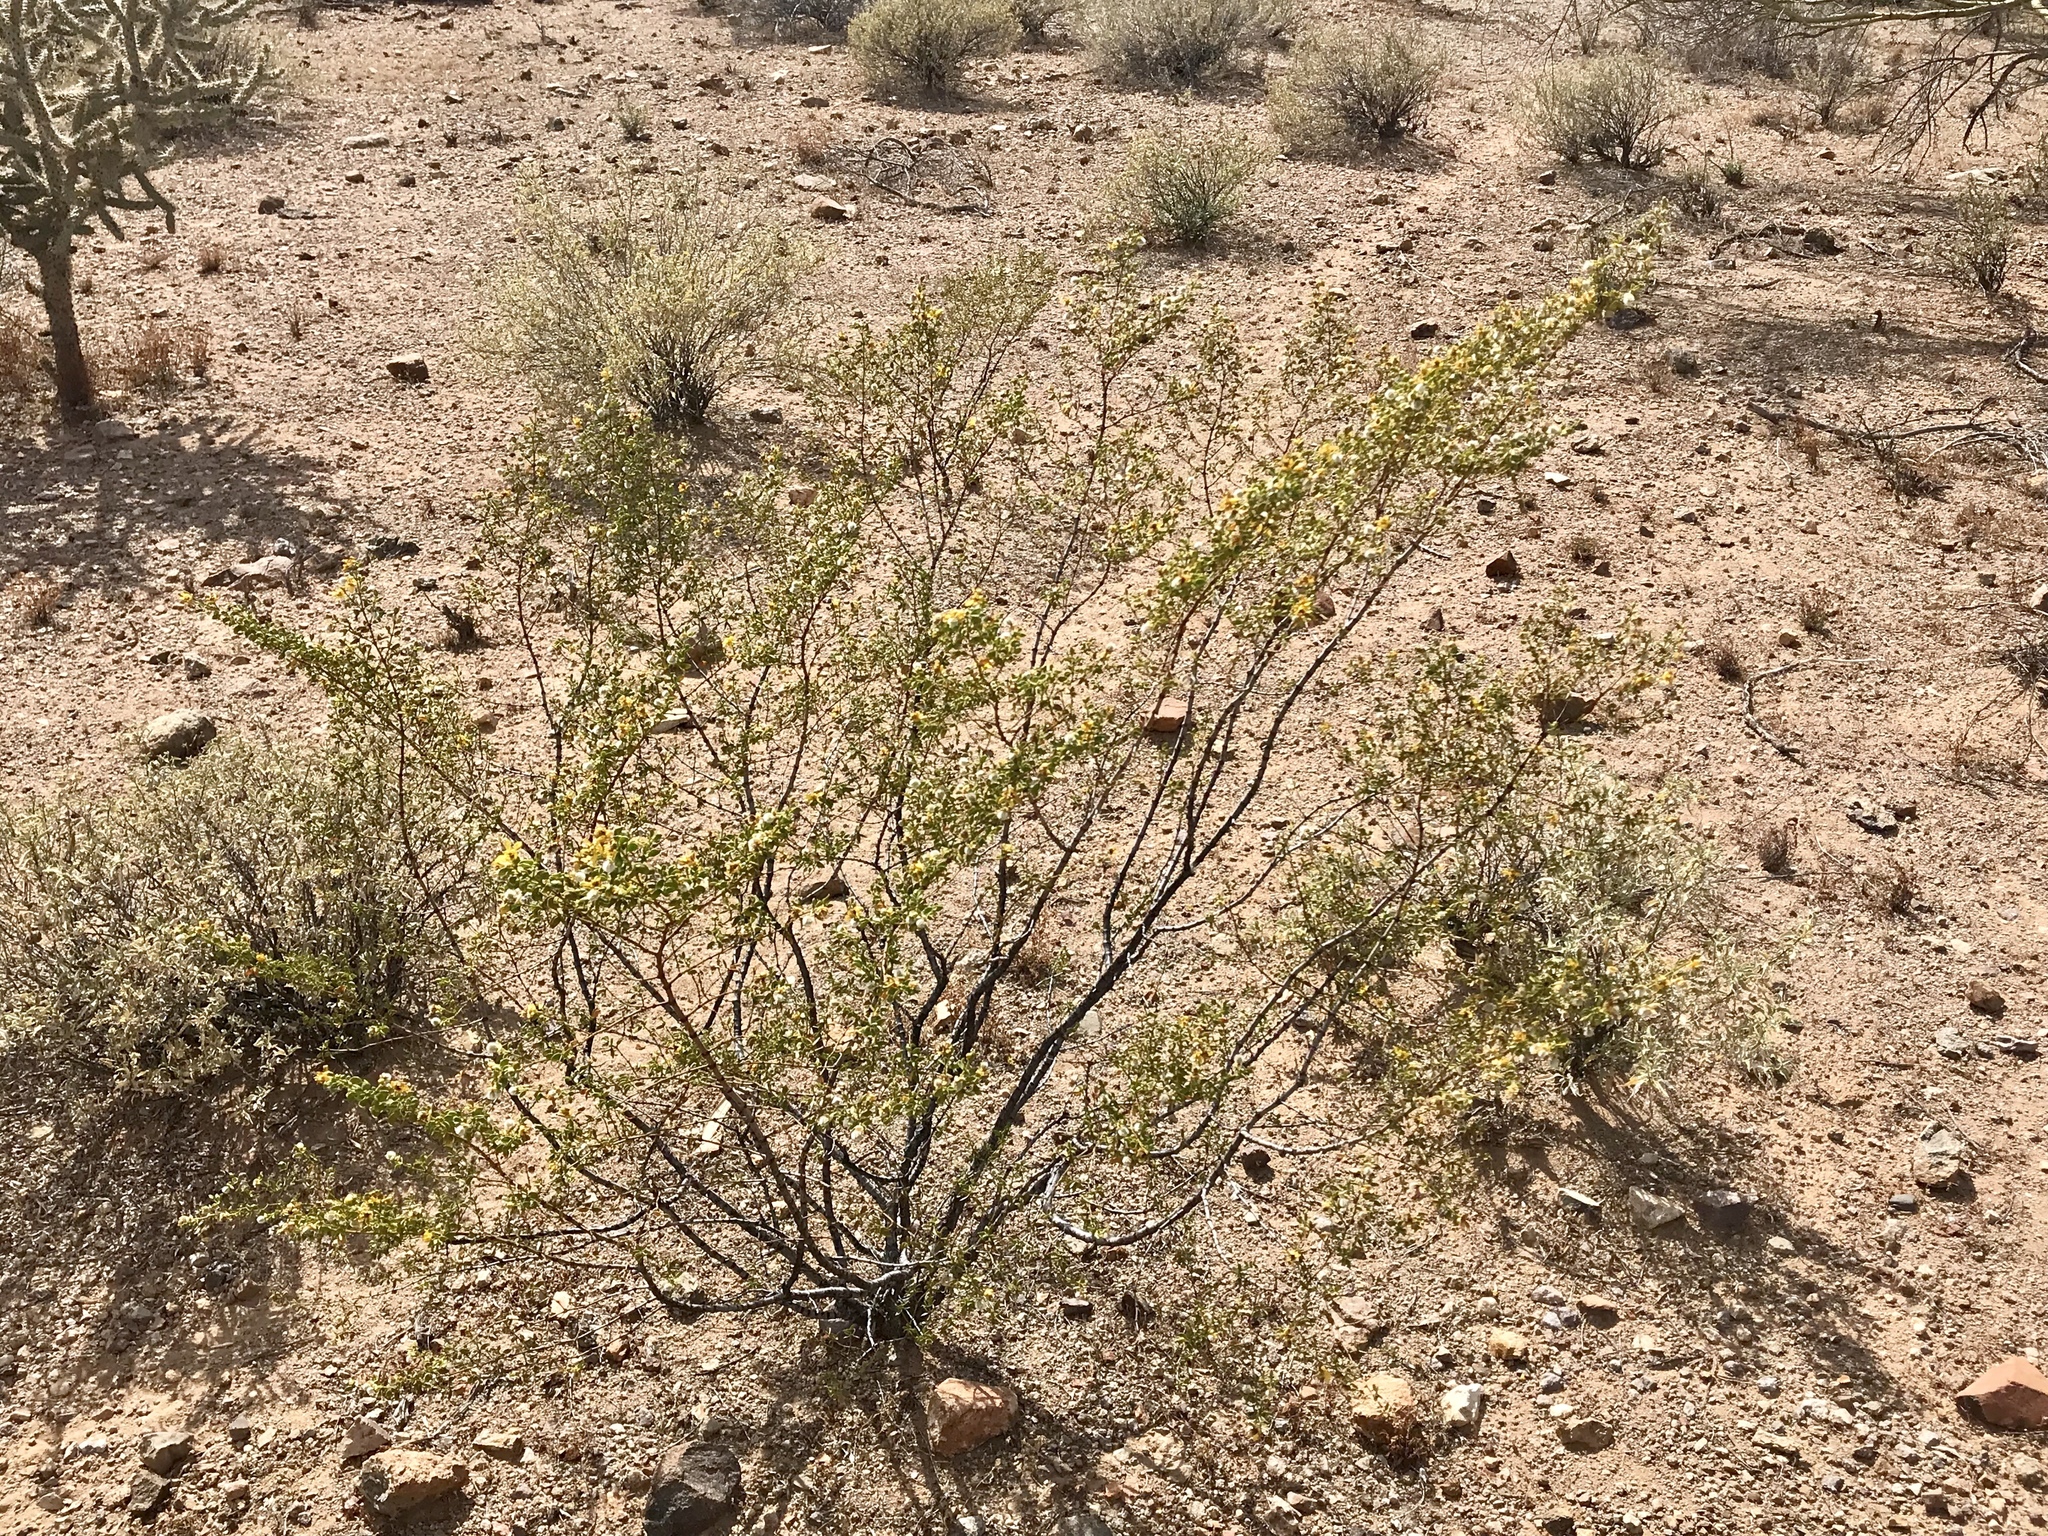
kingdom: Plantae
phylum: Tracheophyta
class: Magnoliopsida
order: Zygophyllales
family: Zygophyllaceae
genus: Larrea
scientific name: Larrea tridentata
